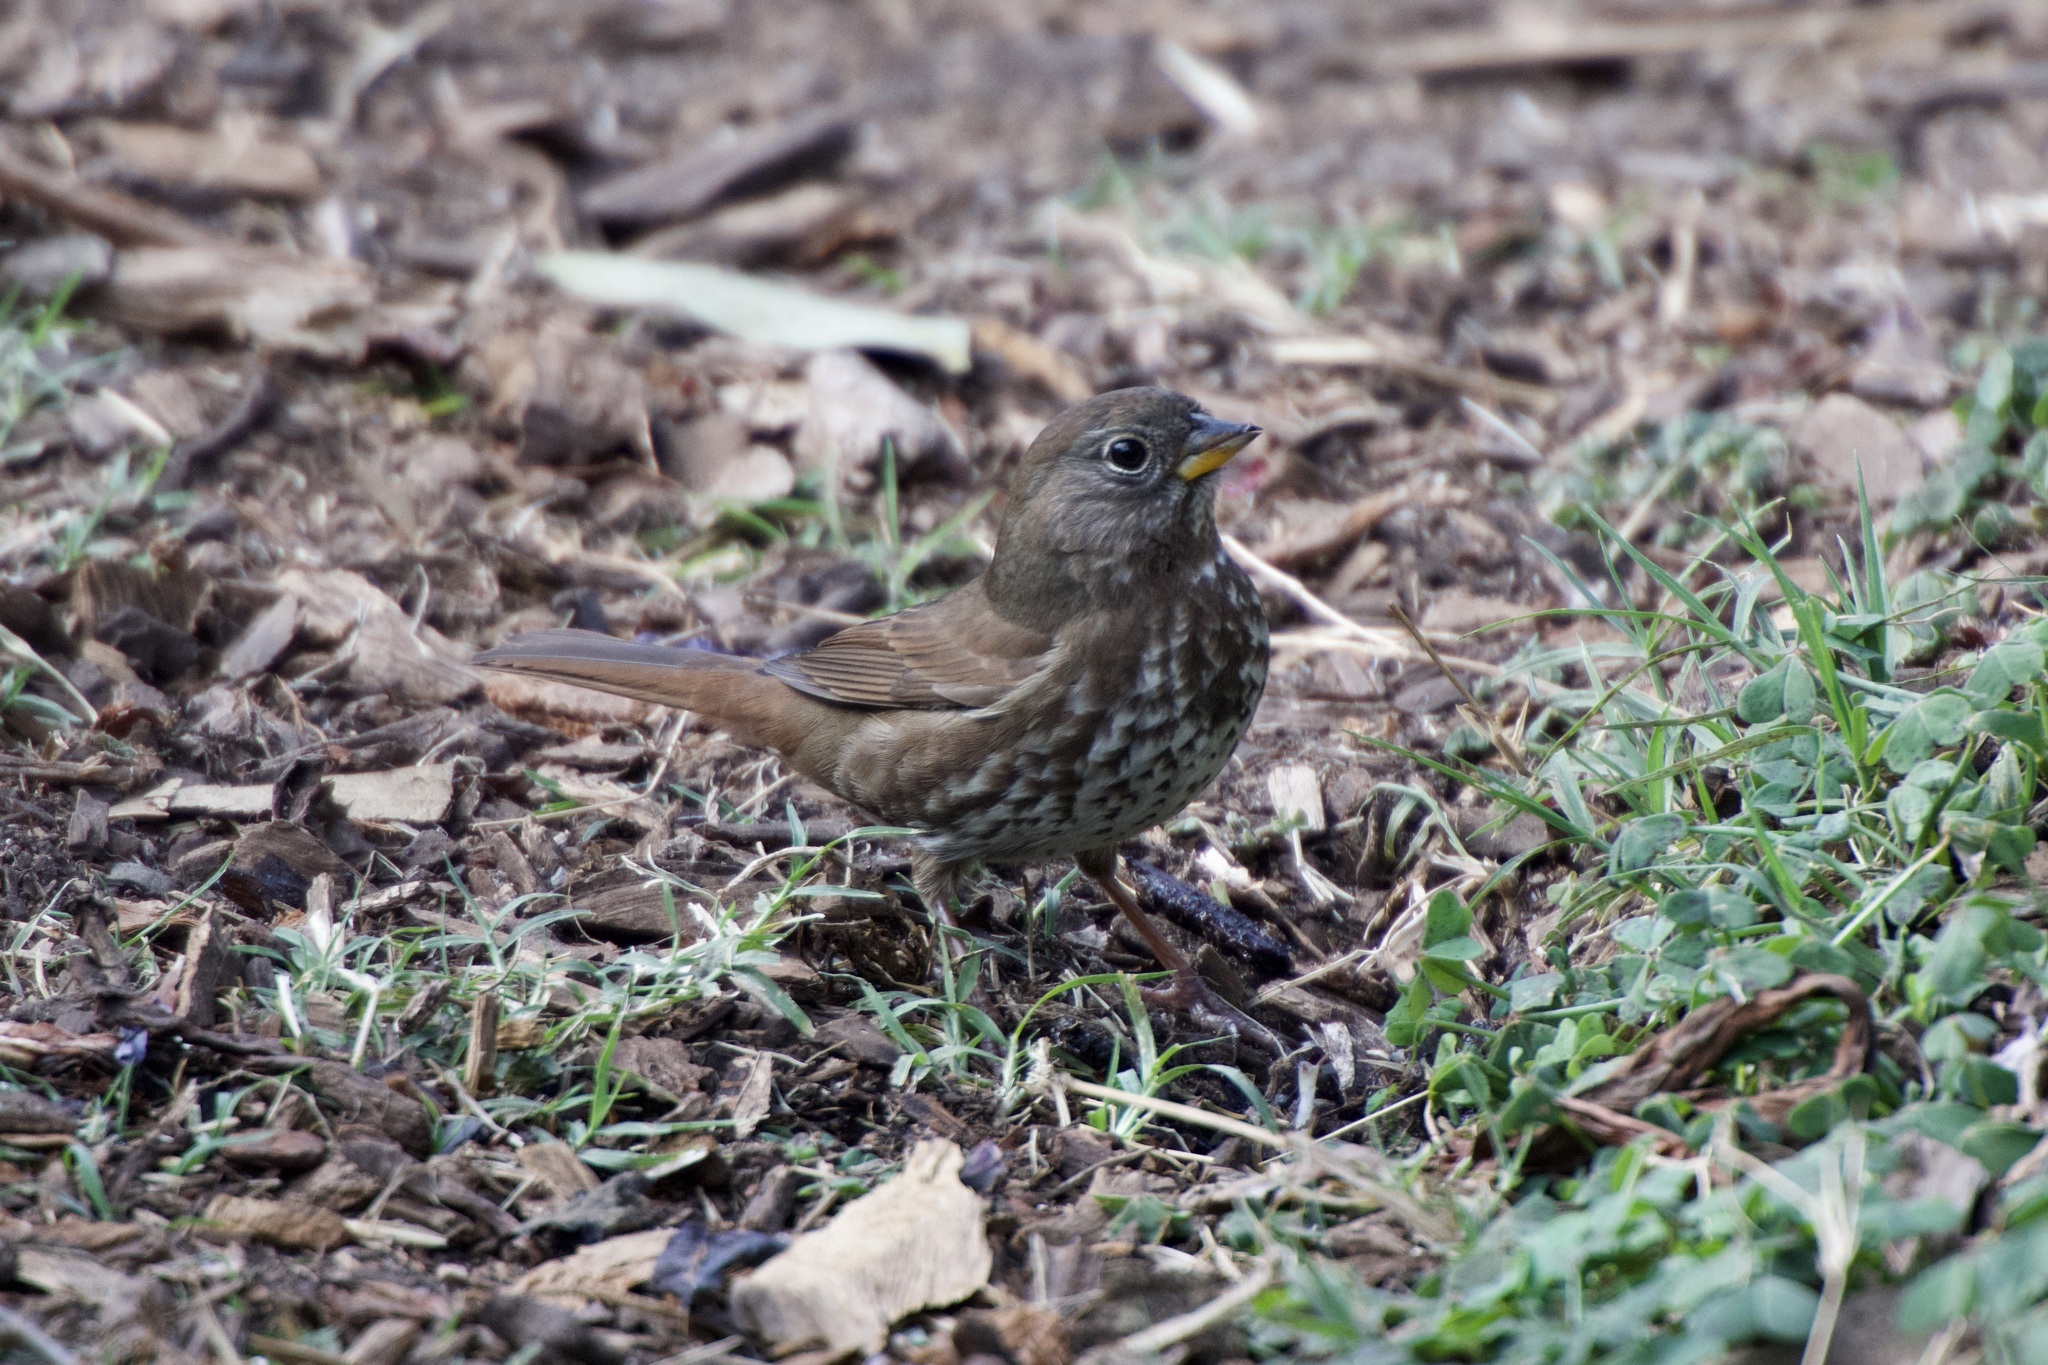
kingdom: Animalia
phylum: Chordata
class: Aves
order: Passeriformes
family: Passerellidae
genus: Passerella
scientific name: Passerella iliaca
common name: Fox sparrow
